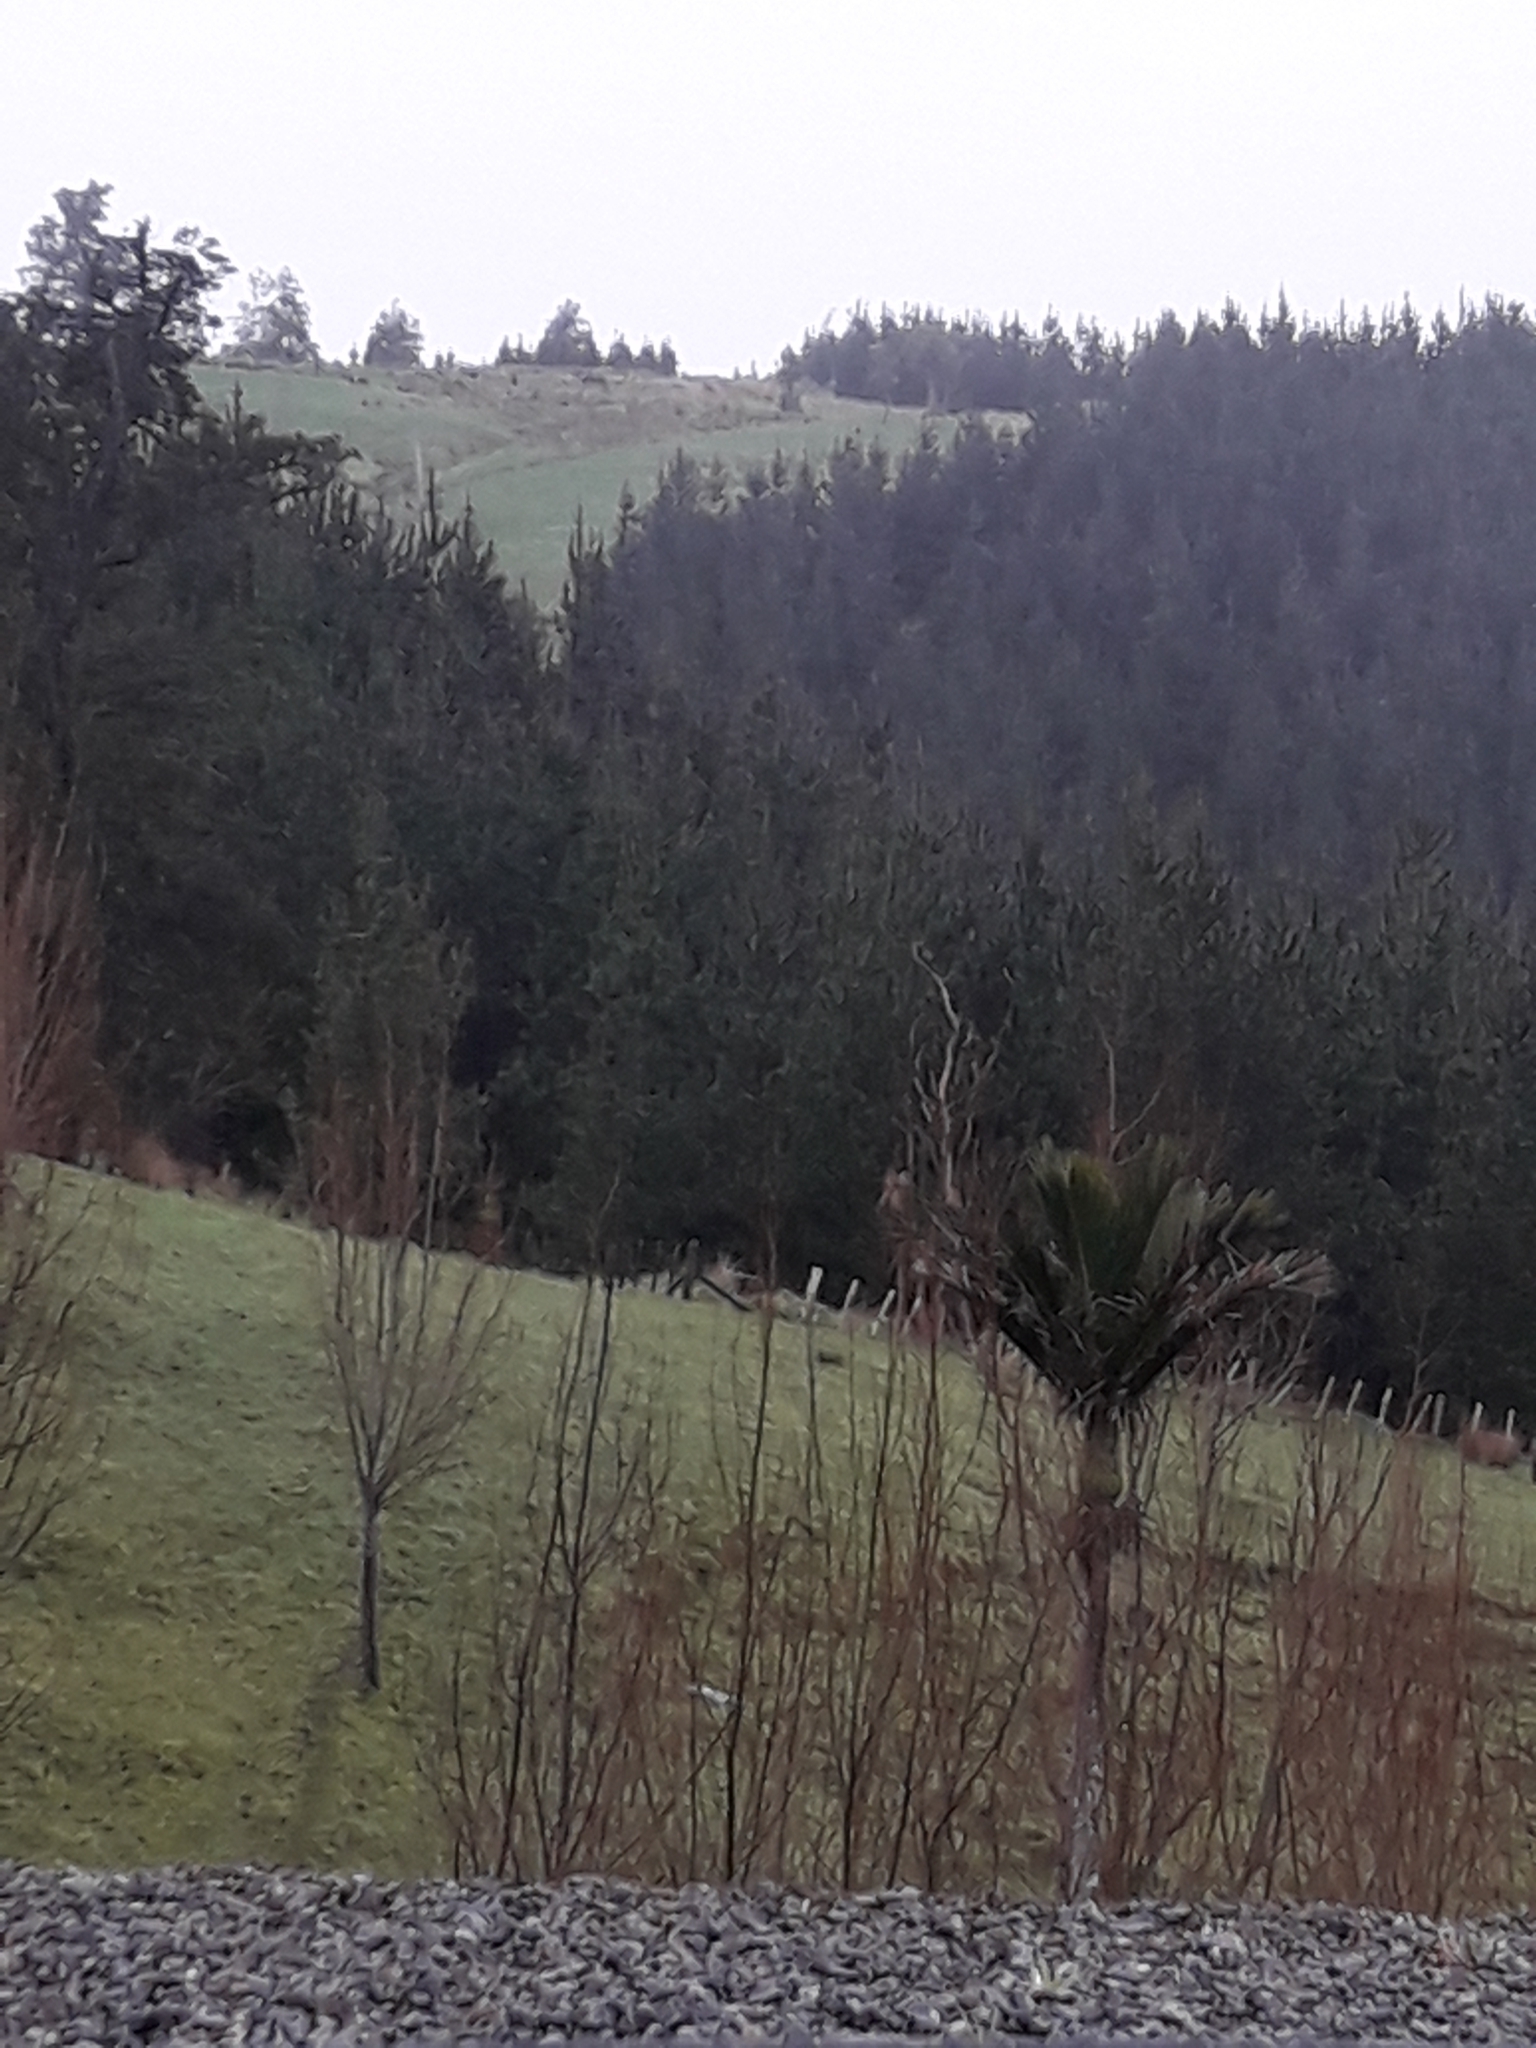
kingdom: Plantae
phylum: Tracheophyta
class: Liliopsida
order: Arecales
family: Arecaceae
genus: Rhopalostylis
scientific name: Rhopalostylis sapida
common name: Feather-duster palm
